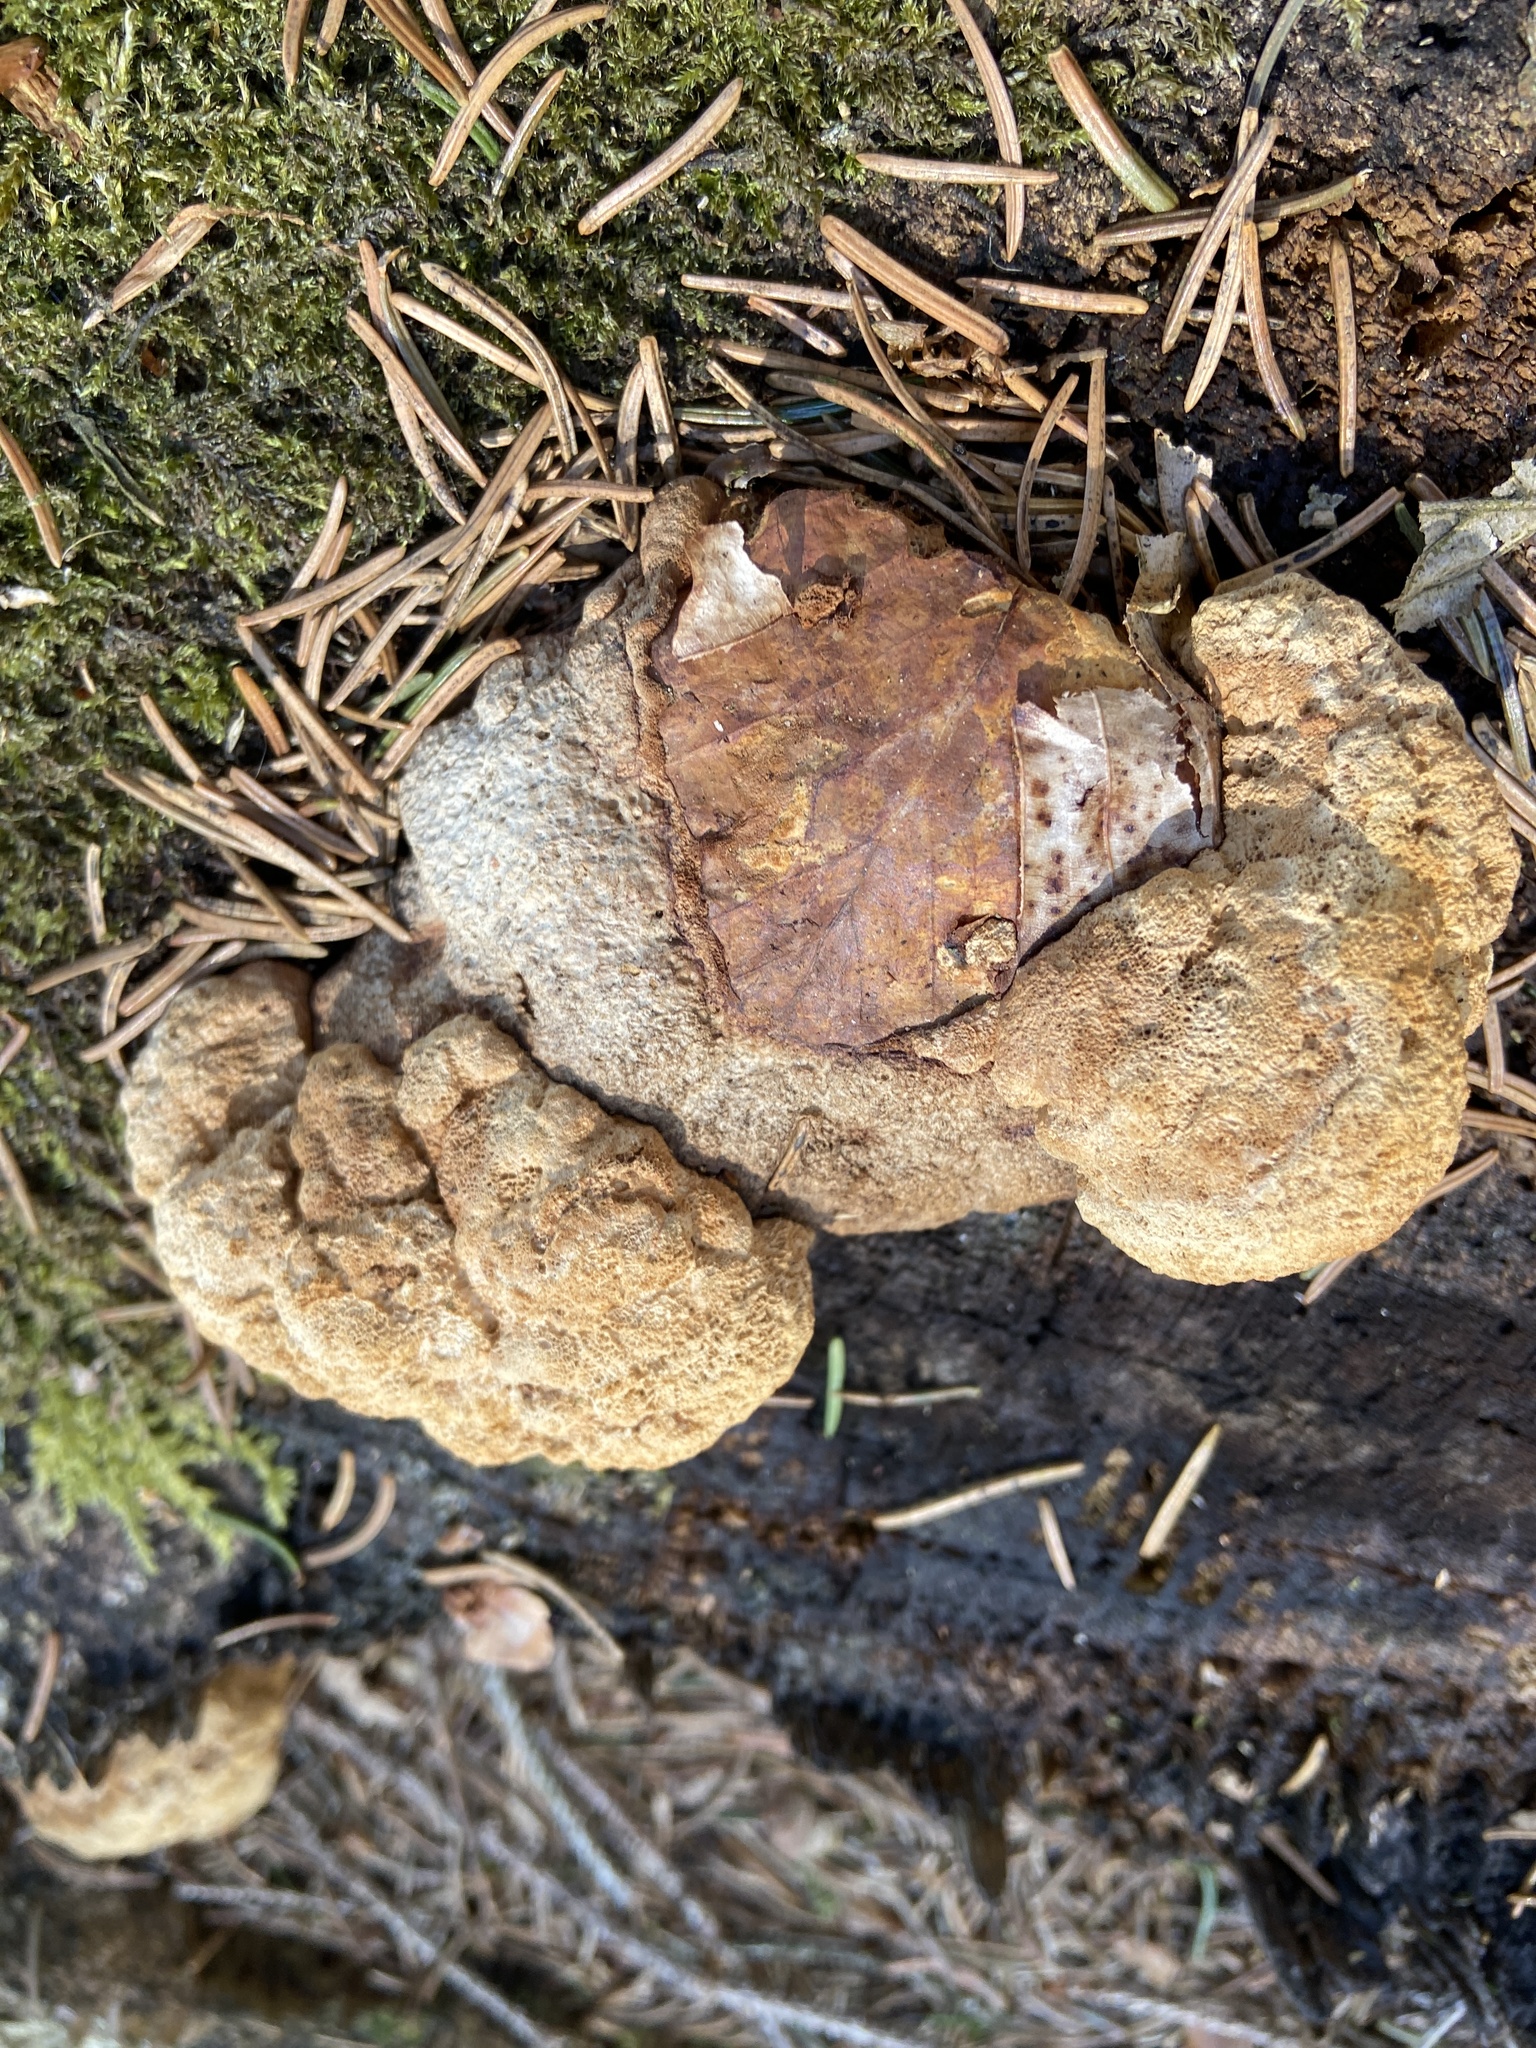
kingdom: Fungi
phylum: Basidiomycota
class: Agaricomycetes
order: Gloeophyllales
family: Gloeophyllaceae
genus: Gloeophyllum
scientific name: Gloeophyllum odoratum
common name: Anise mazegill
